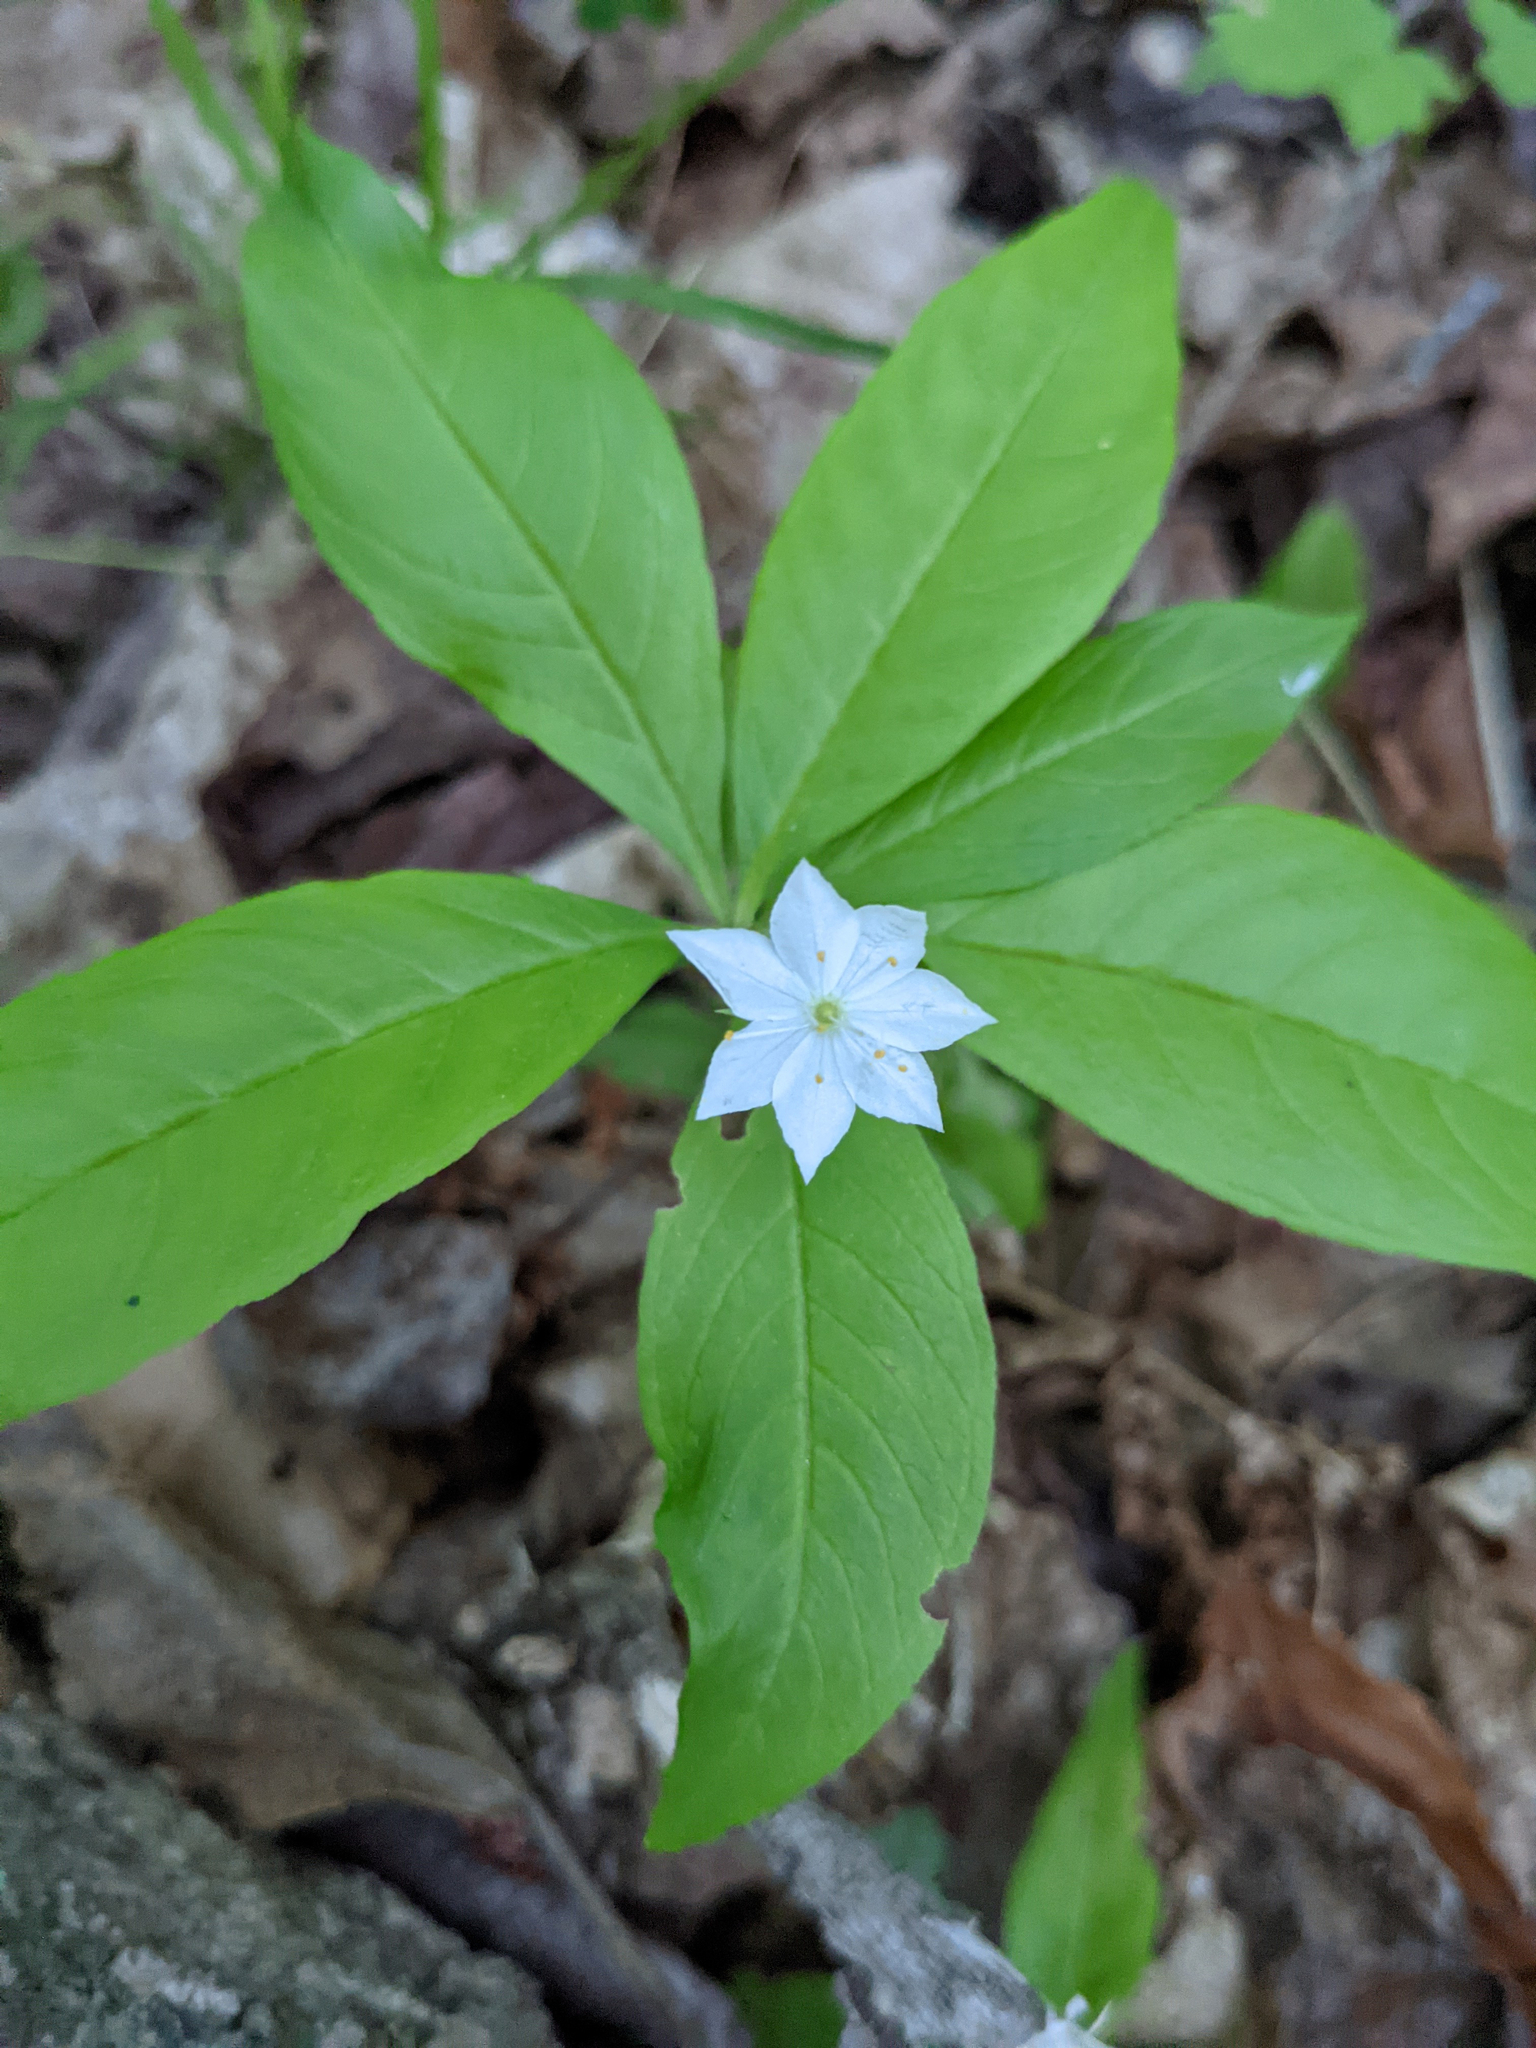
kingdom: Plantae
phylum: Tracheophyta
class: Magnoliopsida
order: Ericales
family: Primulaceae
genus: Lysimachia
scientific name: Lysimachia borealis
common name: American starflower
